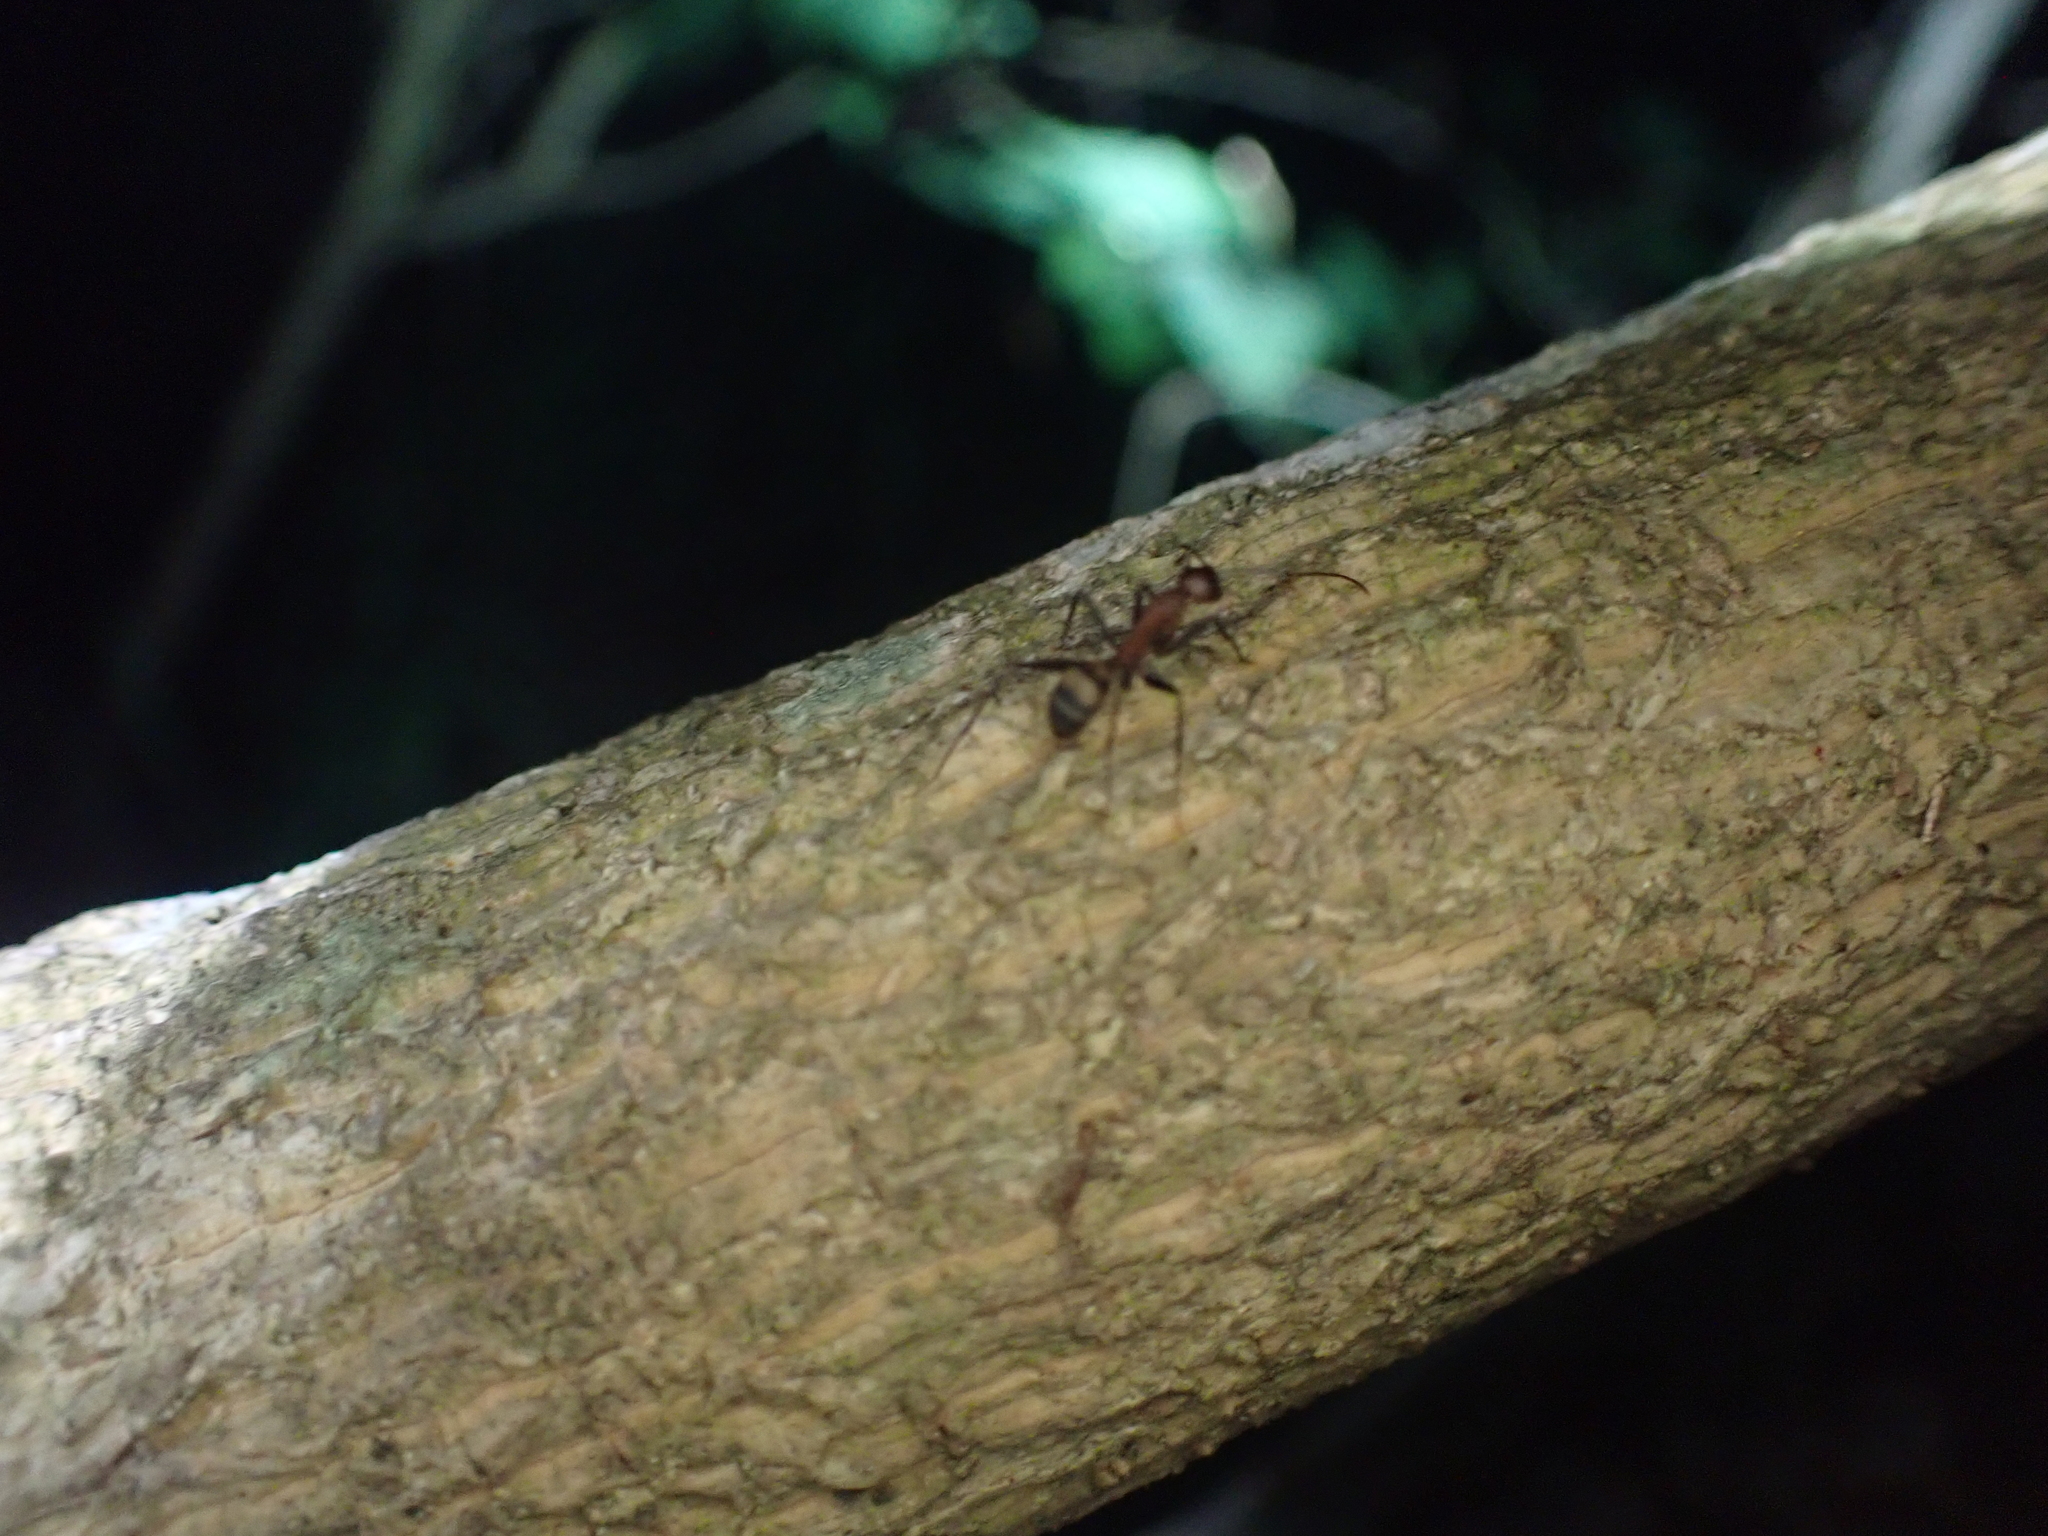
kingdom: Animalia
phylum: Arthropoda
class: Insecta
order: Hymenoptera
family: Formicidae
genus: Camponotus
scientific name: Camponotus habereri
